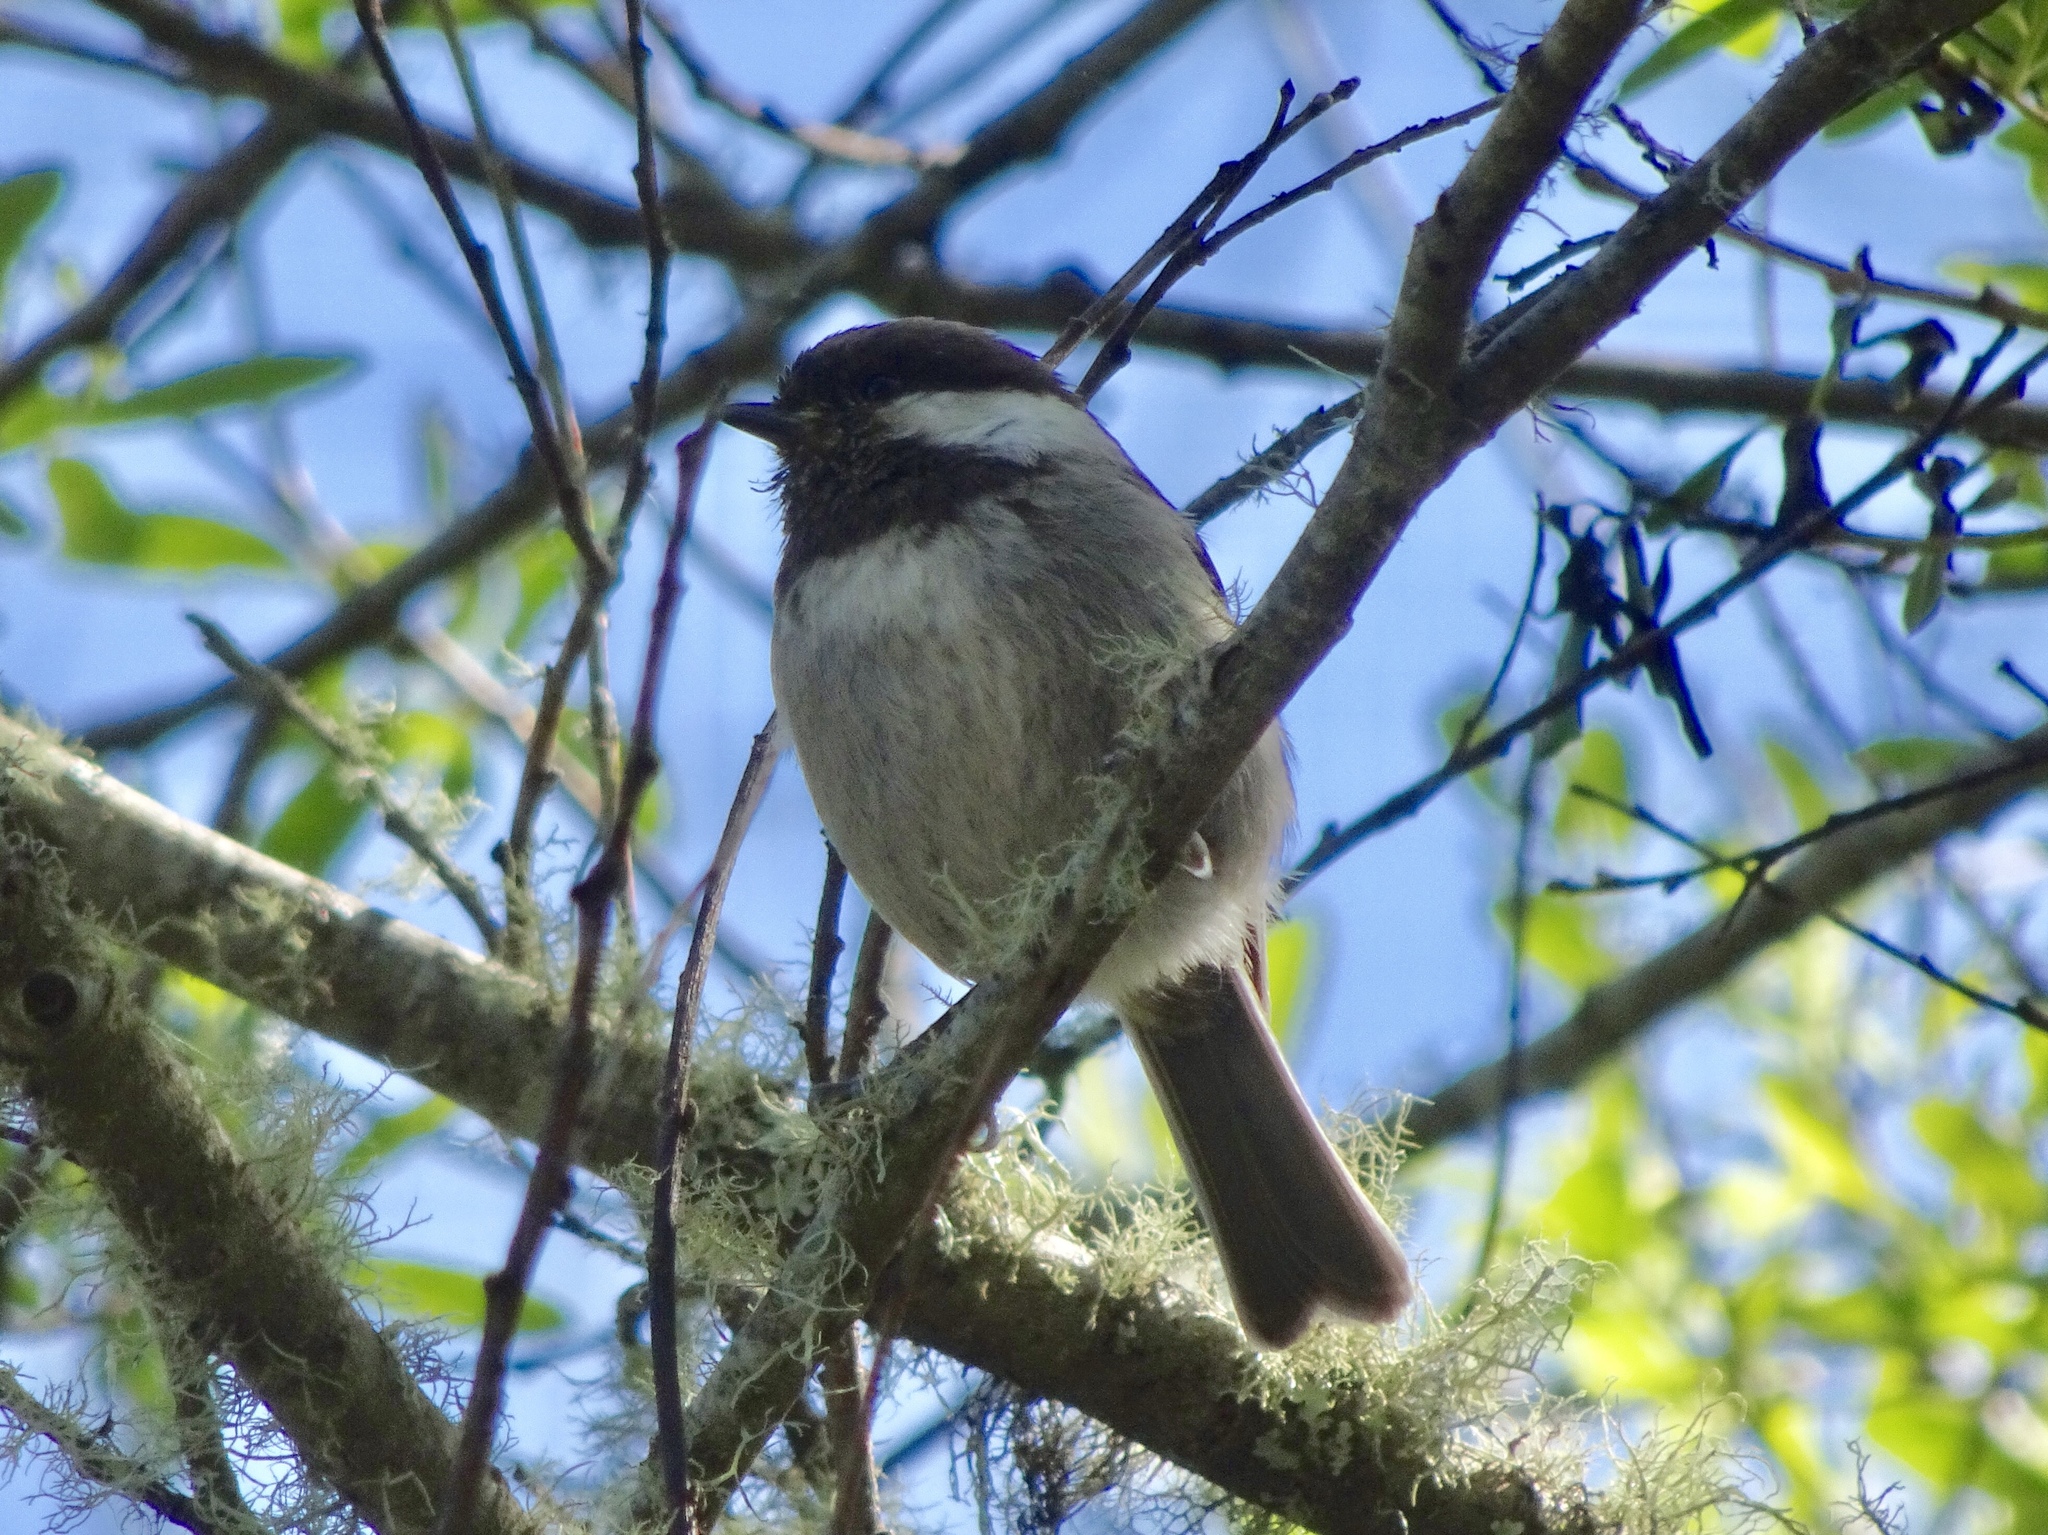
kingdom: Animalia
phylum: Chordata
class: Aves
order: Passeriformes
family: Paridae
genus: Poecile
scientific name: Poecile rufescens
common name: Chestnut-backed chickadee
